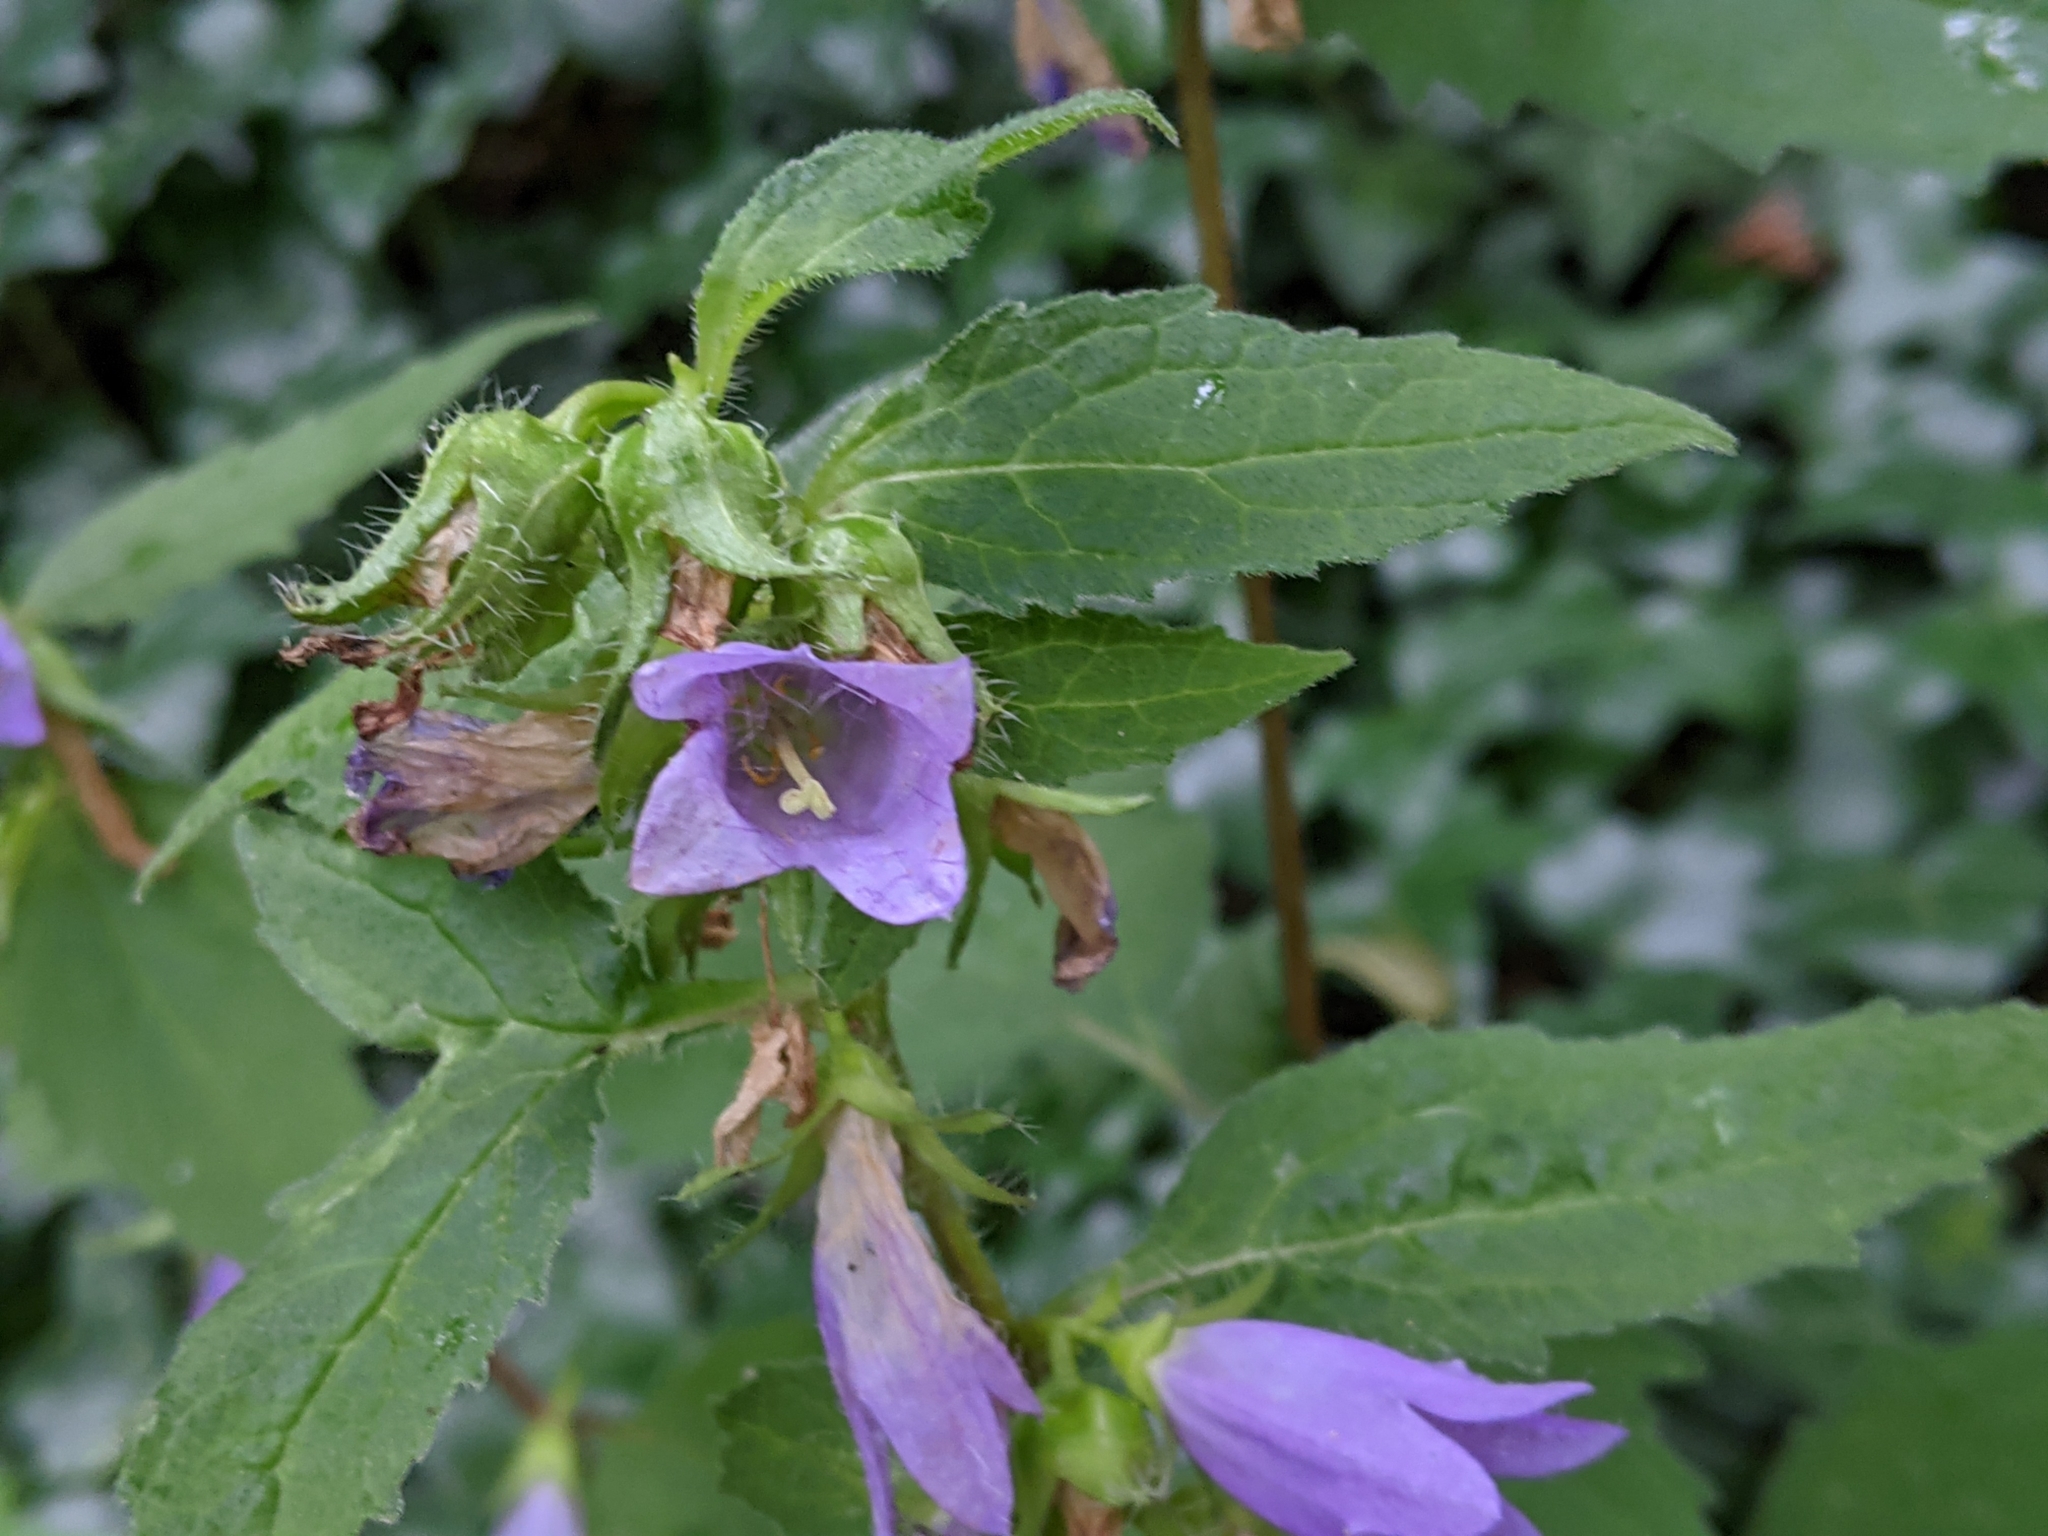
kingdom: Plantae
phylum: Tracheophyta
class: Magnoliopsida
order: Asterales
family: Campanulaceae
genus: Campanula
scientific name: Campanula trachelium
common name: Nettle-leaved bellflower
